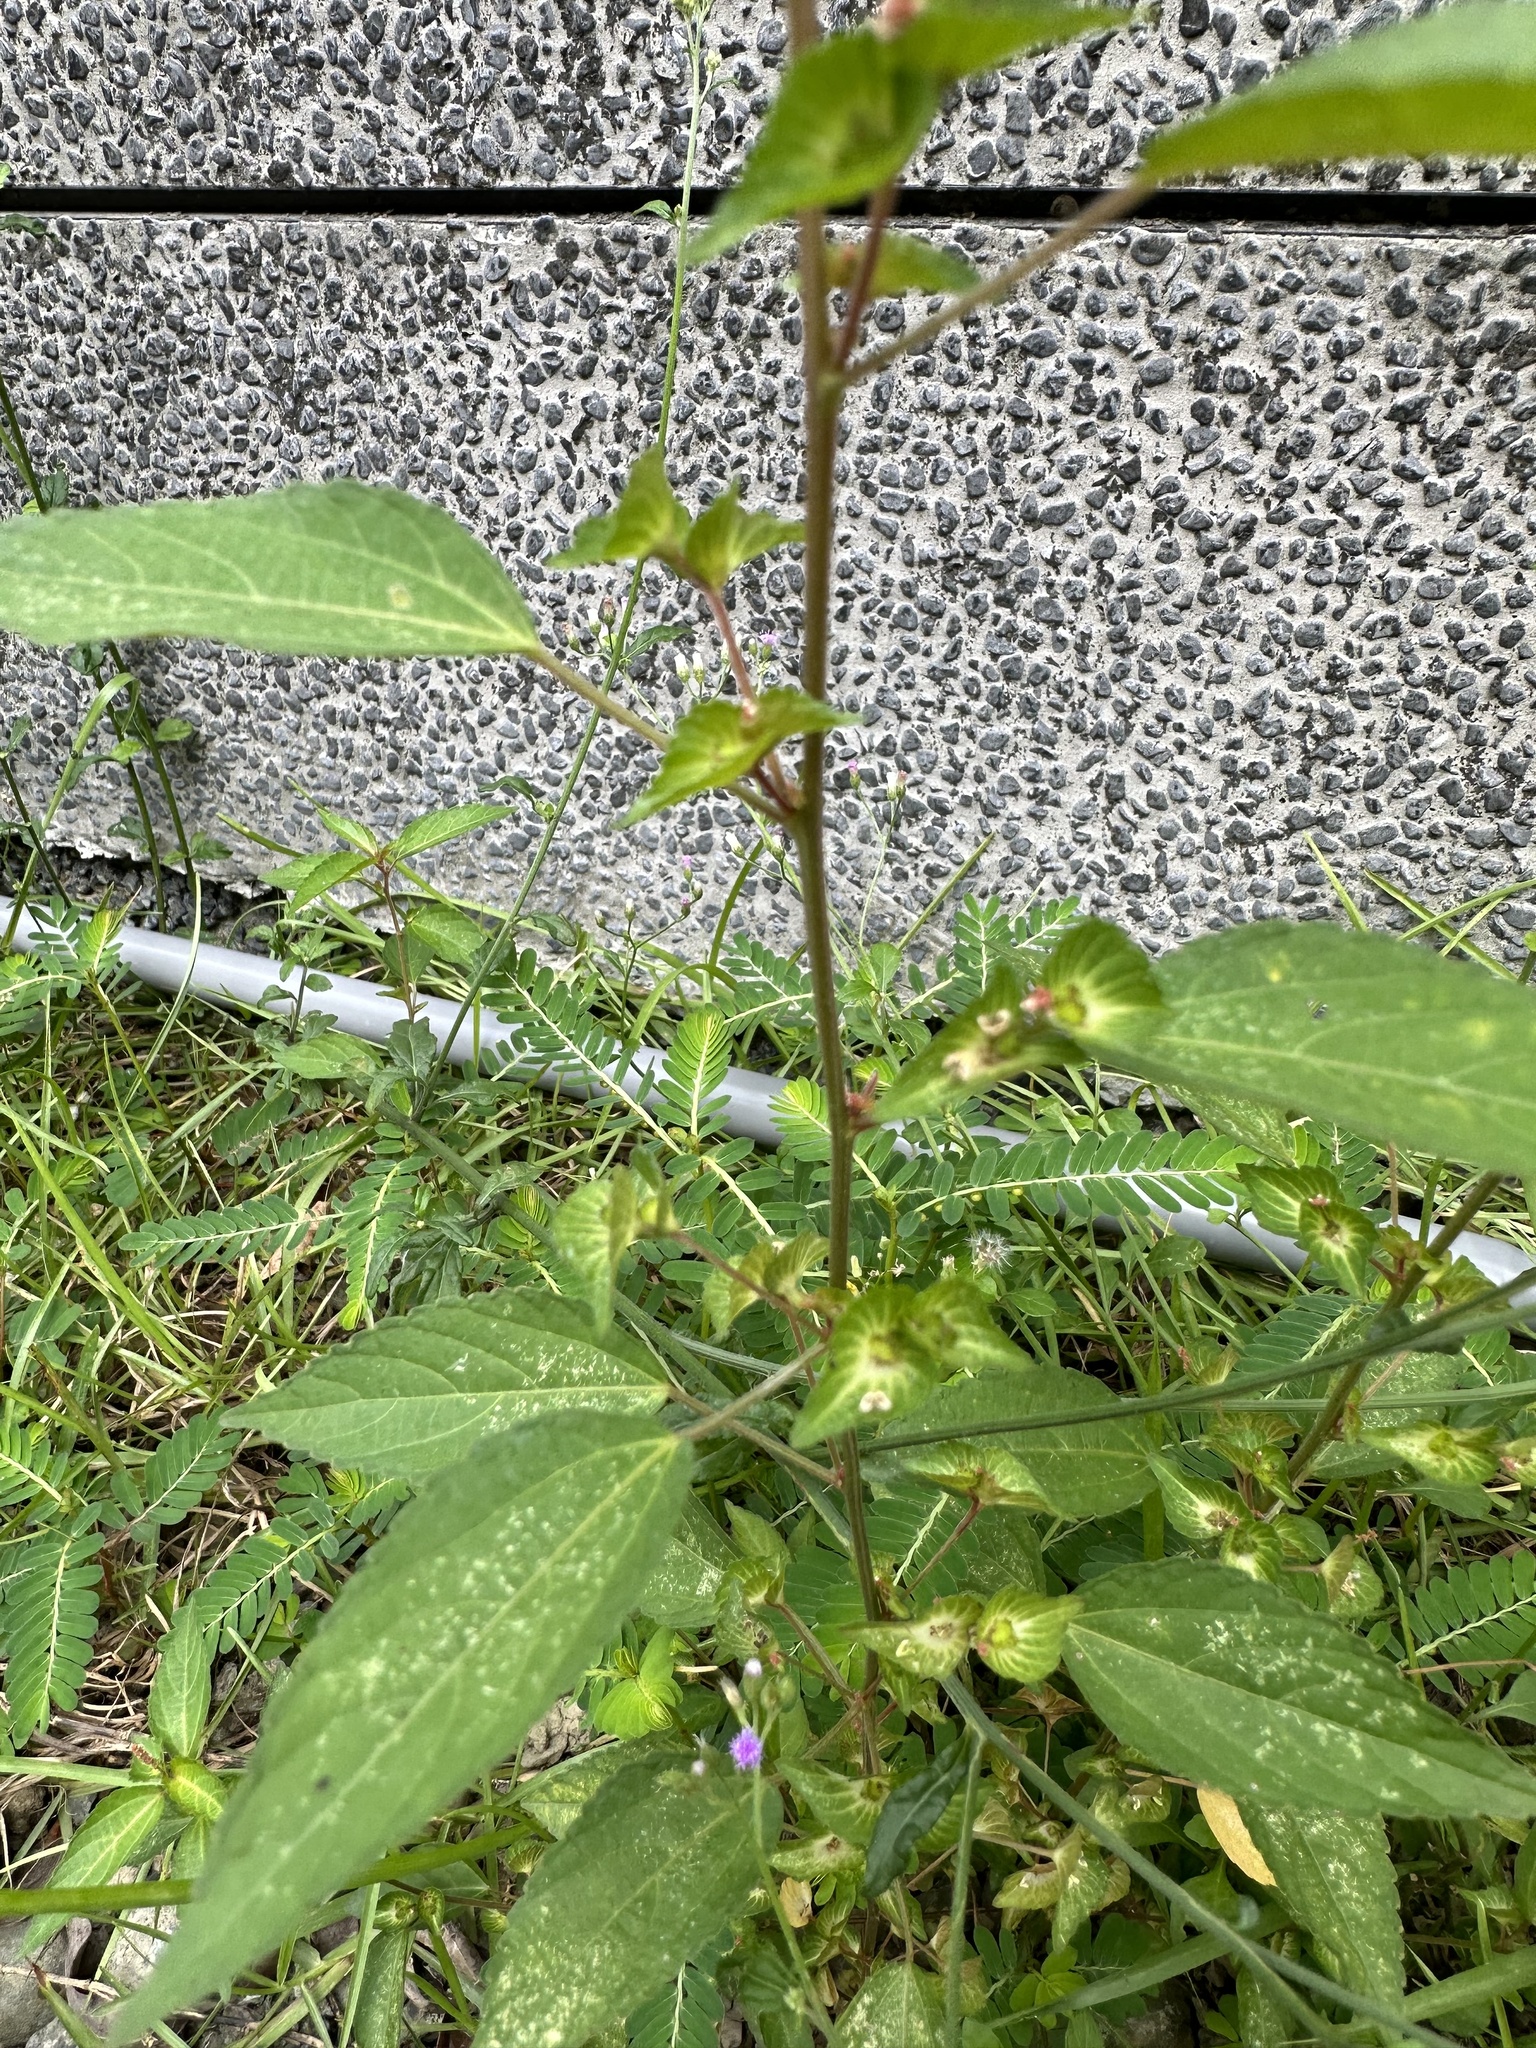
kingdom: Plantae
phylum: Tracheophyta
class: Magnoliopsida
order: Malpighiales
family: Euphorbiaceae
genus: Acalypha
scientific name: Acalypha australis
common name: Asian copperleaf
